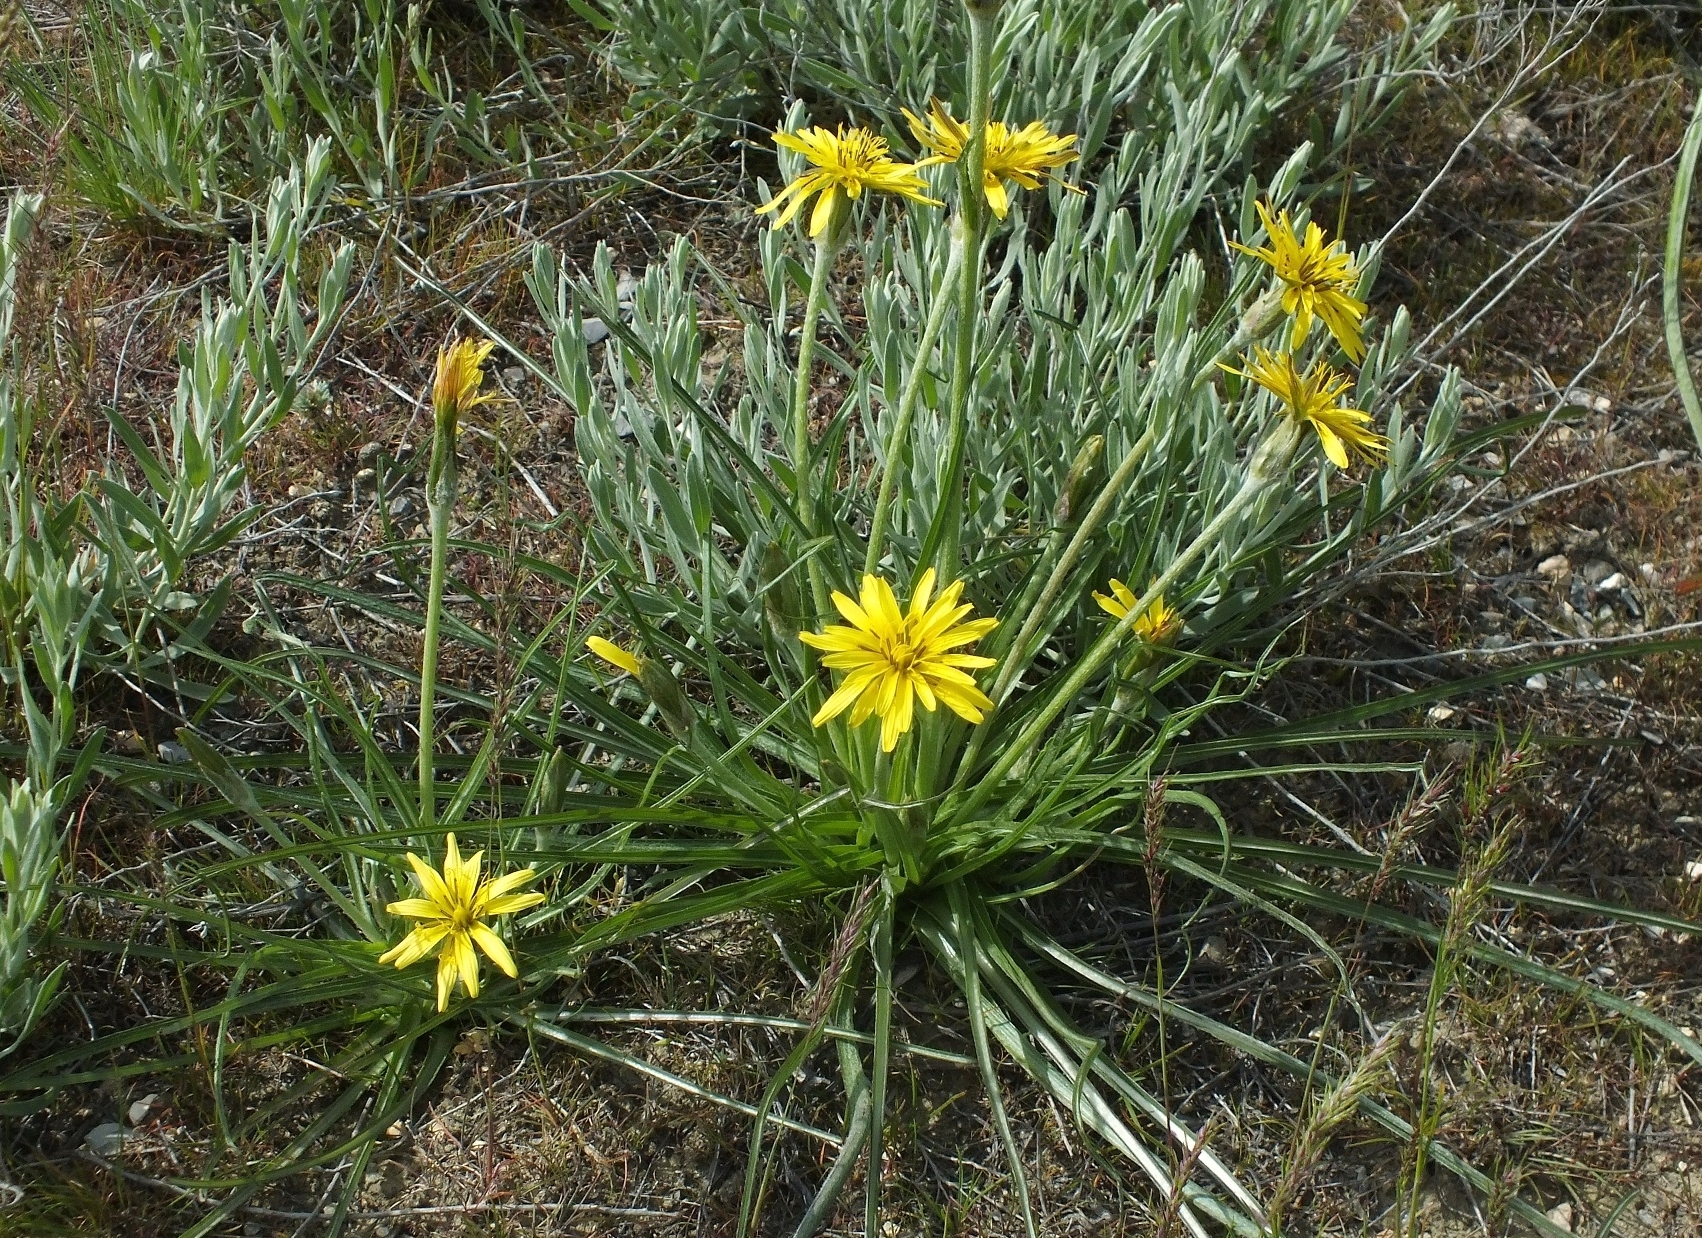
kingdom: Plantae
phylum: Tracheophyta
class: Magnoliopsida
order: Asterales
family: Asteraceae
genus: Candollea
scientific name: Candollea mollis
